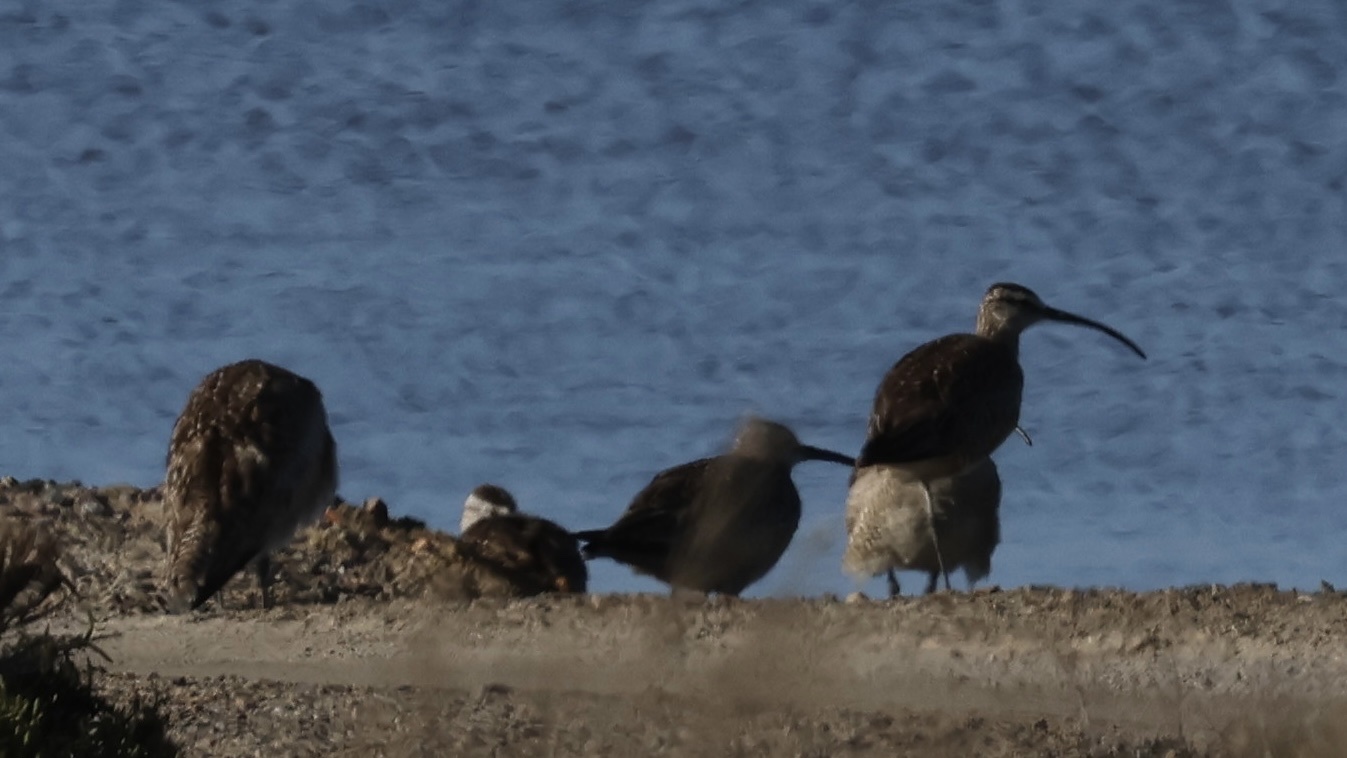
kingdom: Animalia
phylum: Chordata
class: Aves
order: Charadriiformes
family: Scolopacidae
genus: Numenius
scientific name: Numenius phaeopus
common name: Whimbrel
